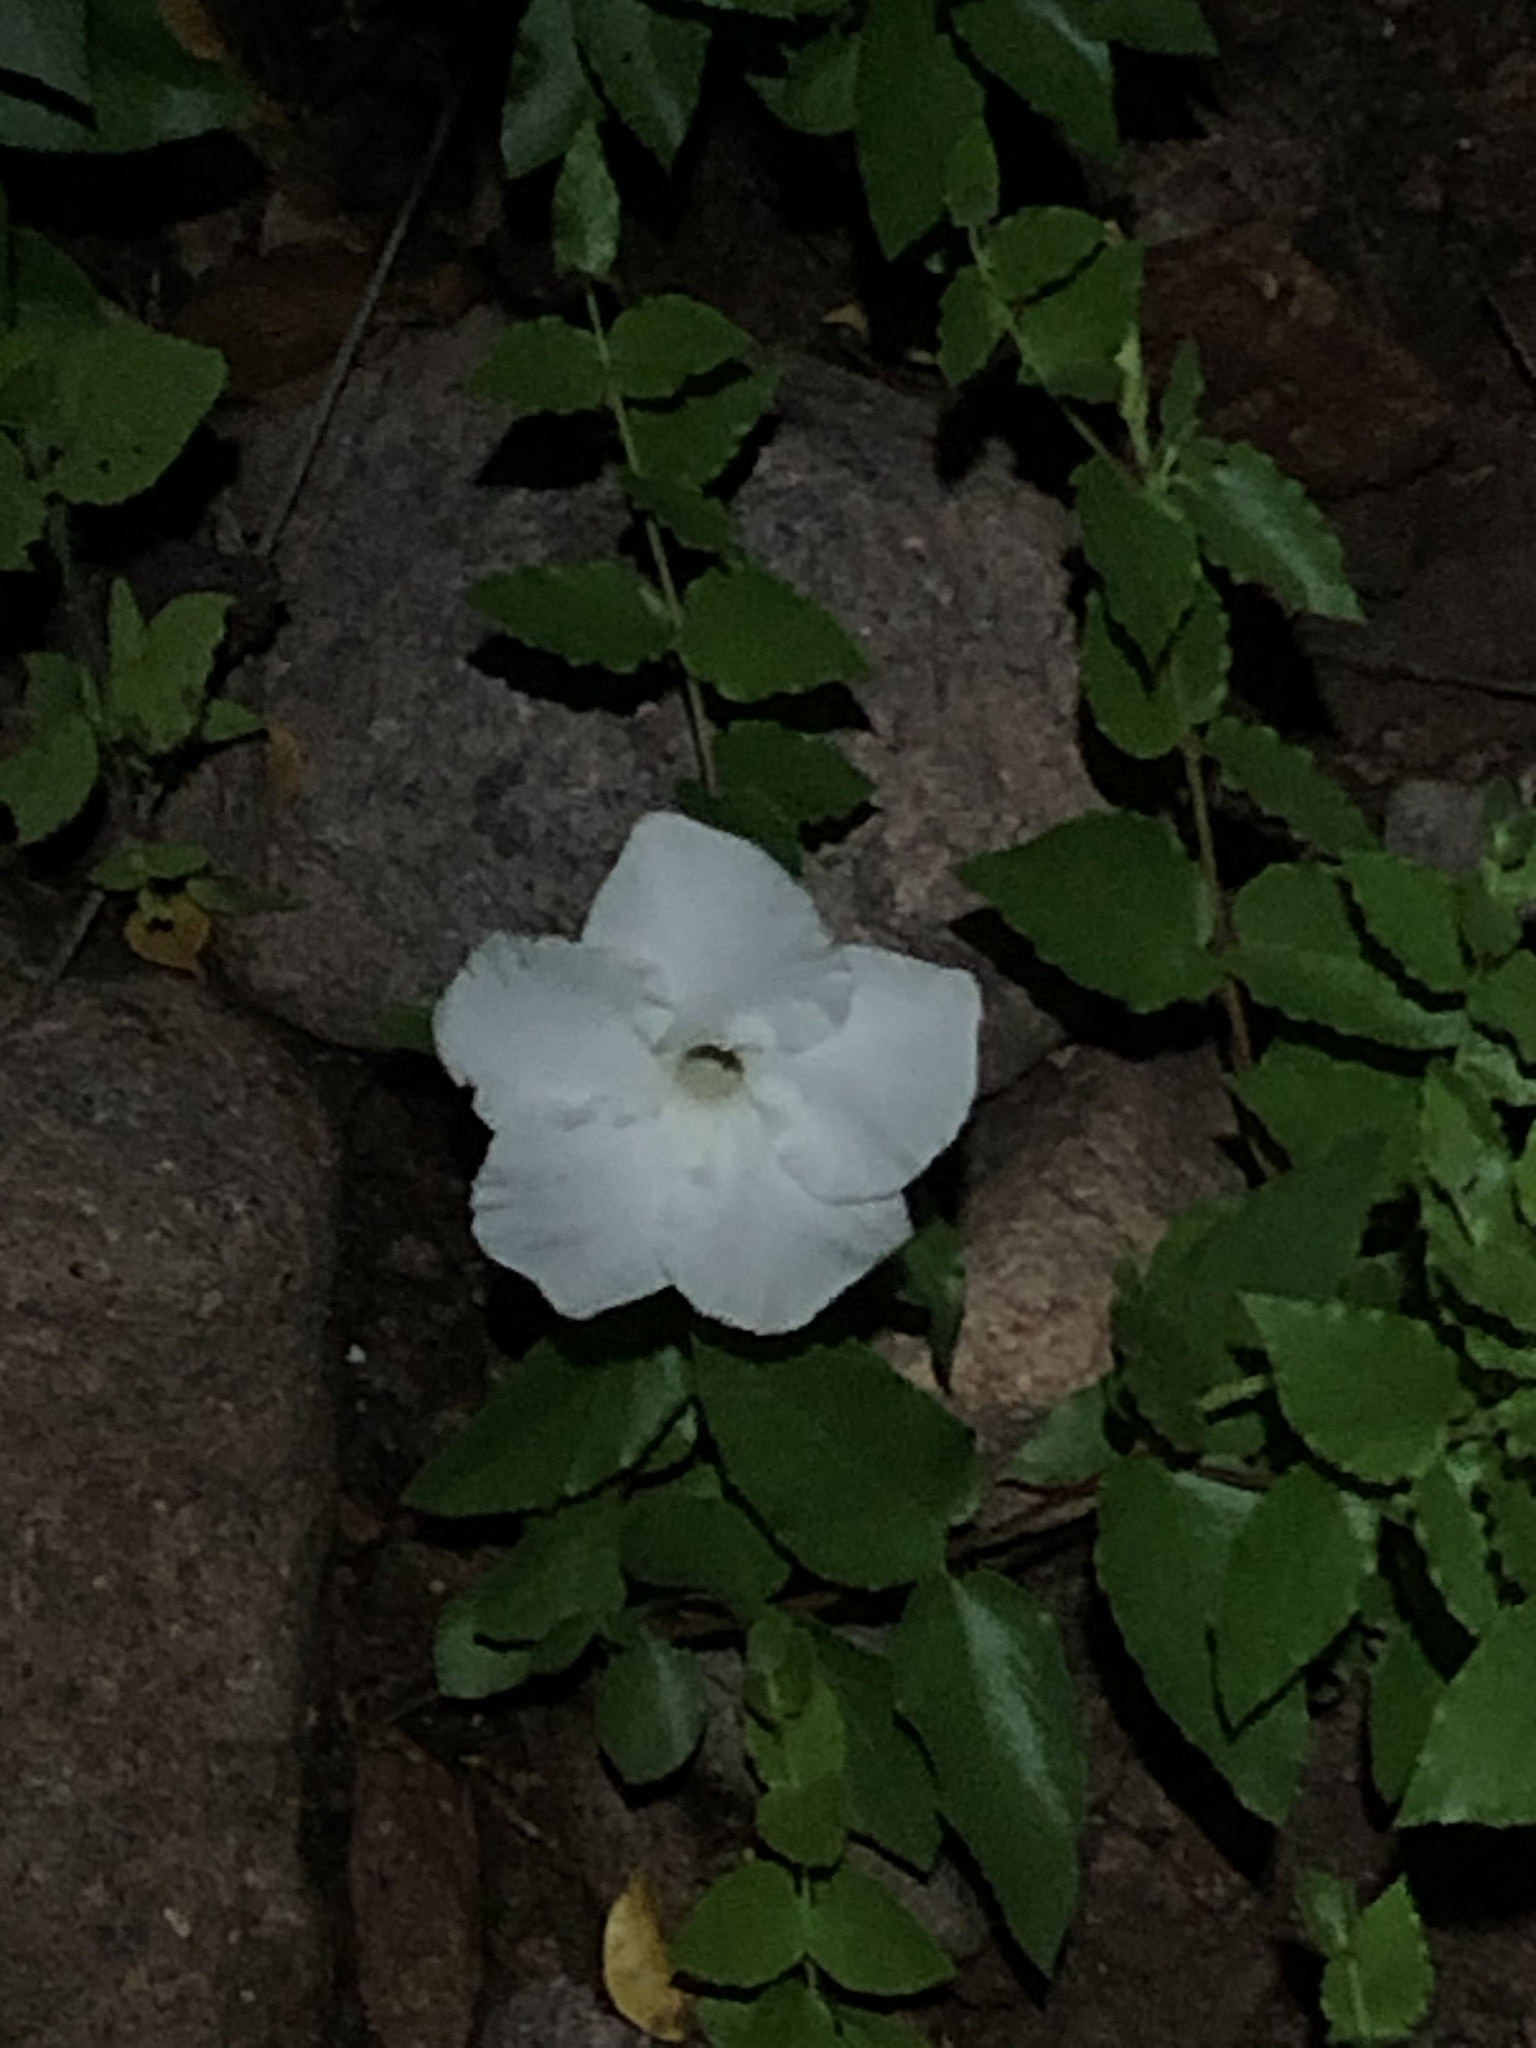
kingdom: Plantae
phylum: Tracheophyta
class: Magnoliopsida
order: Gentianales
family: Apocynaceae
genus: Mandevilla
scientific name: Mandevilla brachysiphon
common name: Huachuca mountain rocktrumpet
